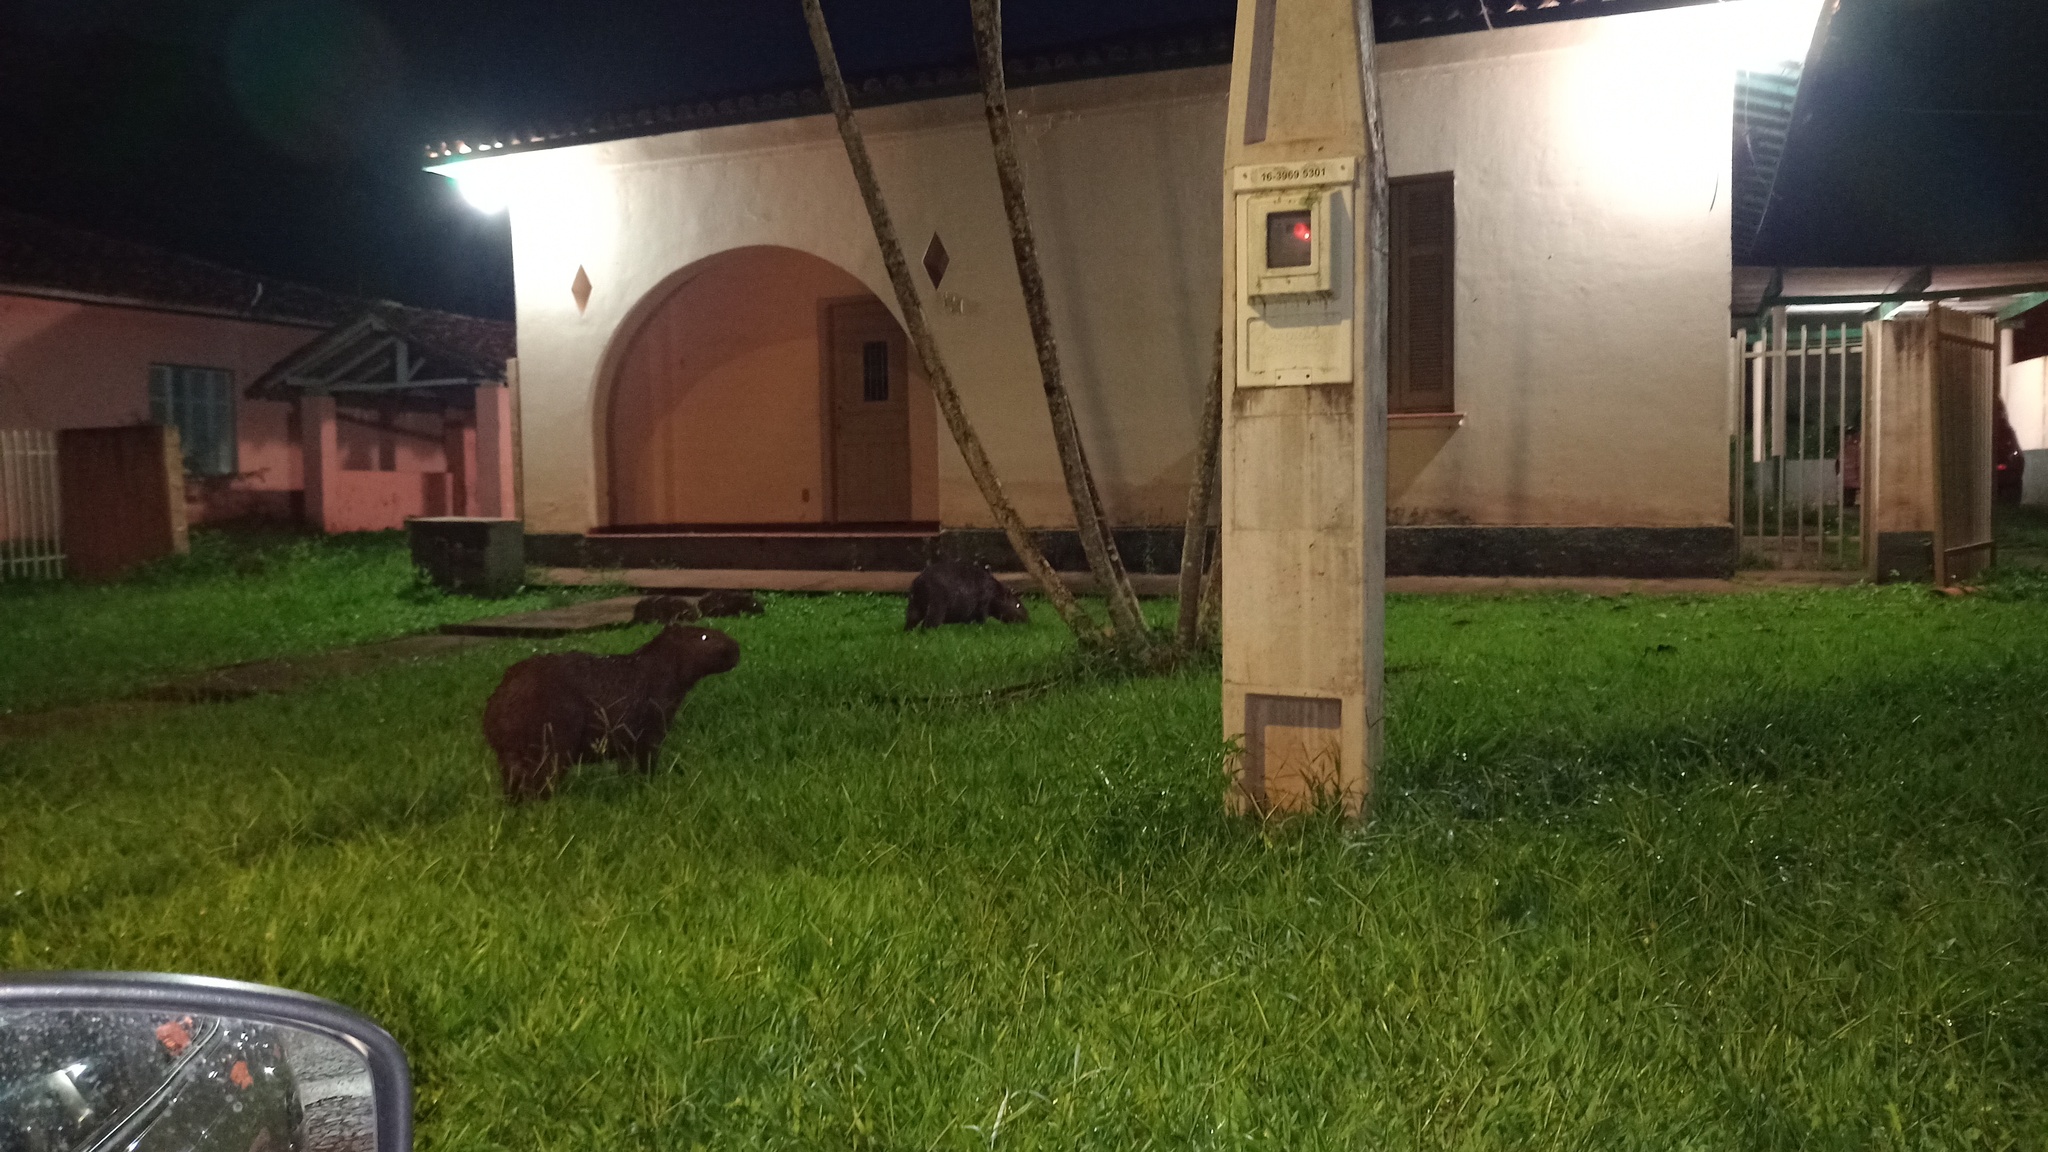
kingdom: Animalia
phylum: Chordata
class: Mammalia
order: Rodentia
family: Caviidae
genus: Hydrochoerus
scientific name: Hydrochoerus hydrochaeris
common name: Capybara
